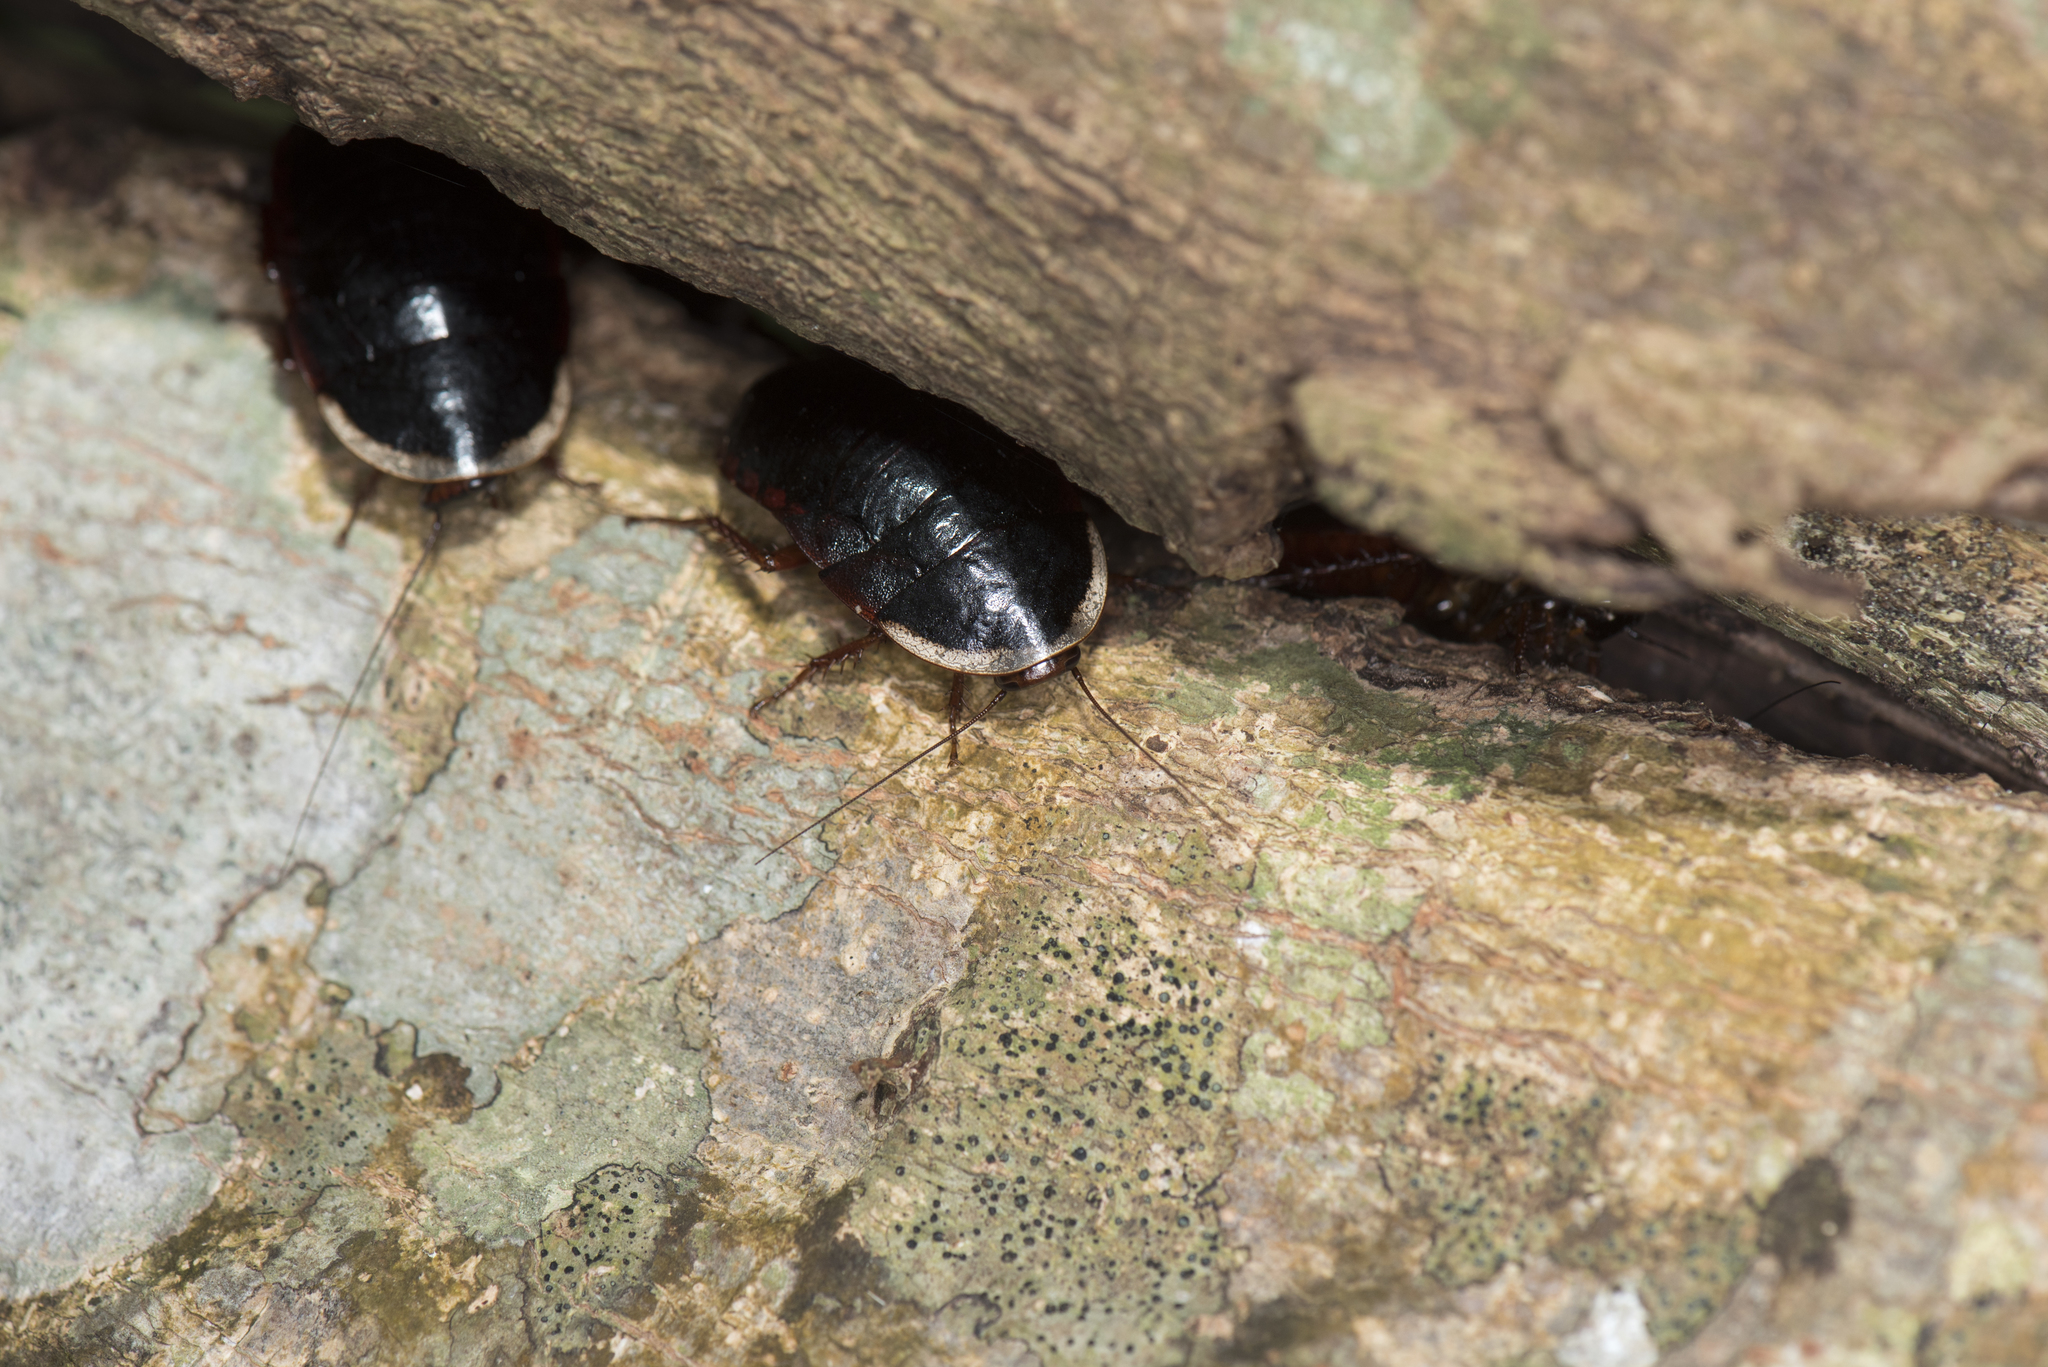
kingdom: Animalia
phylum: Arthropoda
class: Insecta
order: Blattodea
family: Blaberidae
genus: Opisthoplatia
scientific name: Opisthoplatia orientalis
